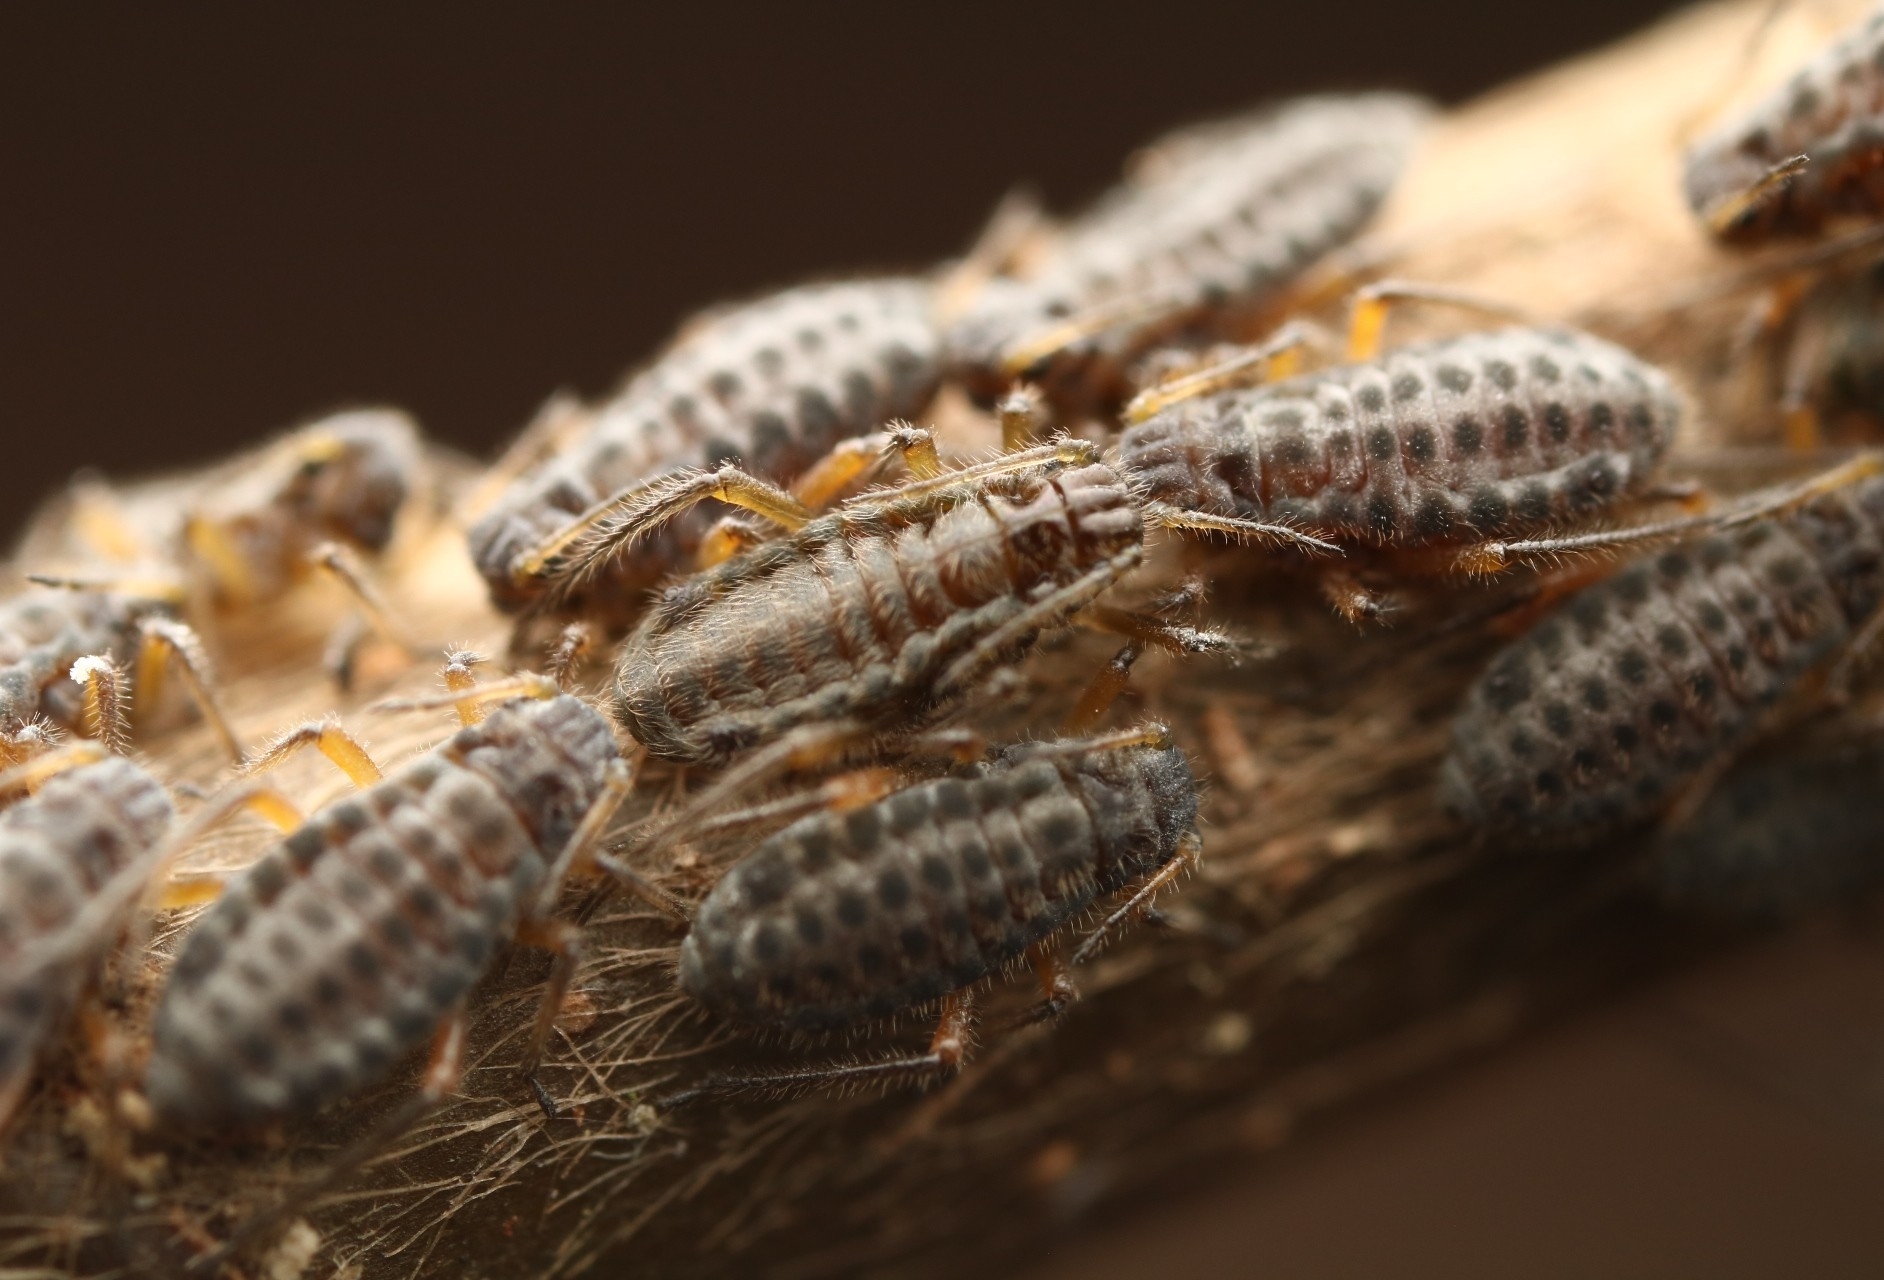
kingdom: Animalia
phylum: Arthropoda
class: Insecta
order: Hemiptera
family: Aphididae
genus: Longistigma
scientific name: Longistigma caryae
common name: Giant bark aphid
